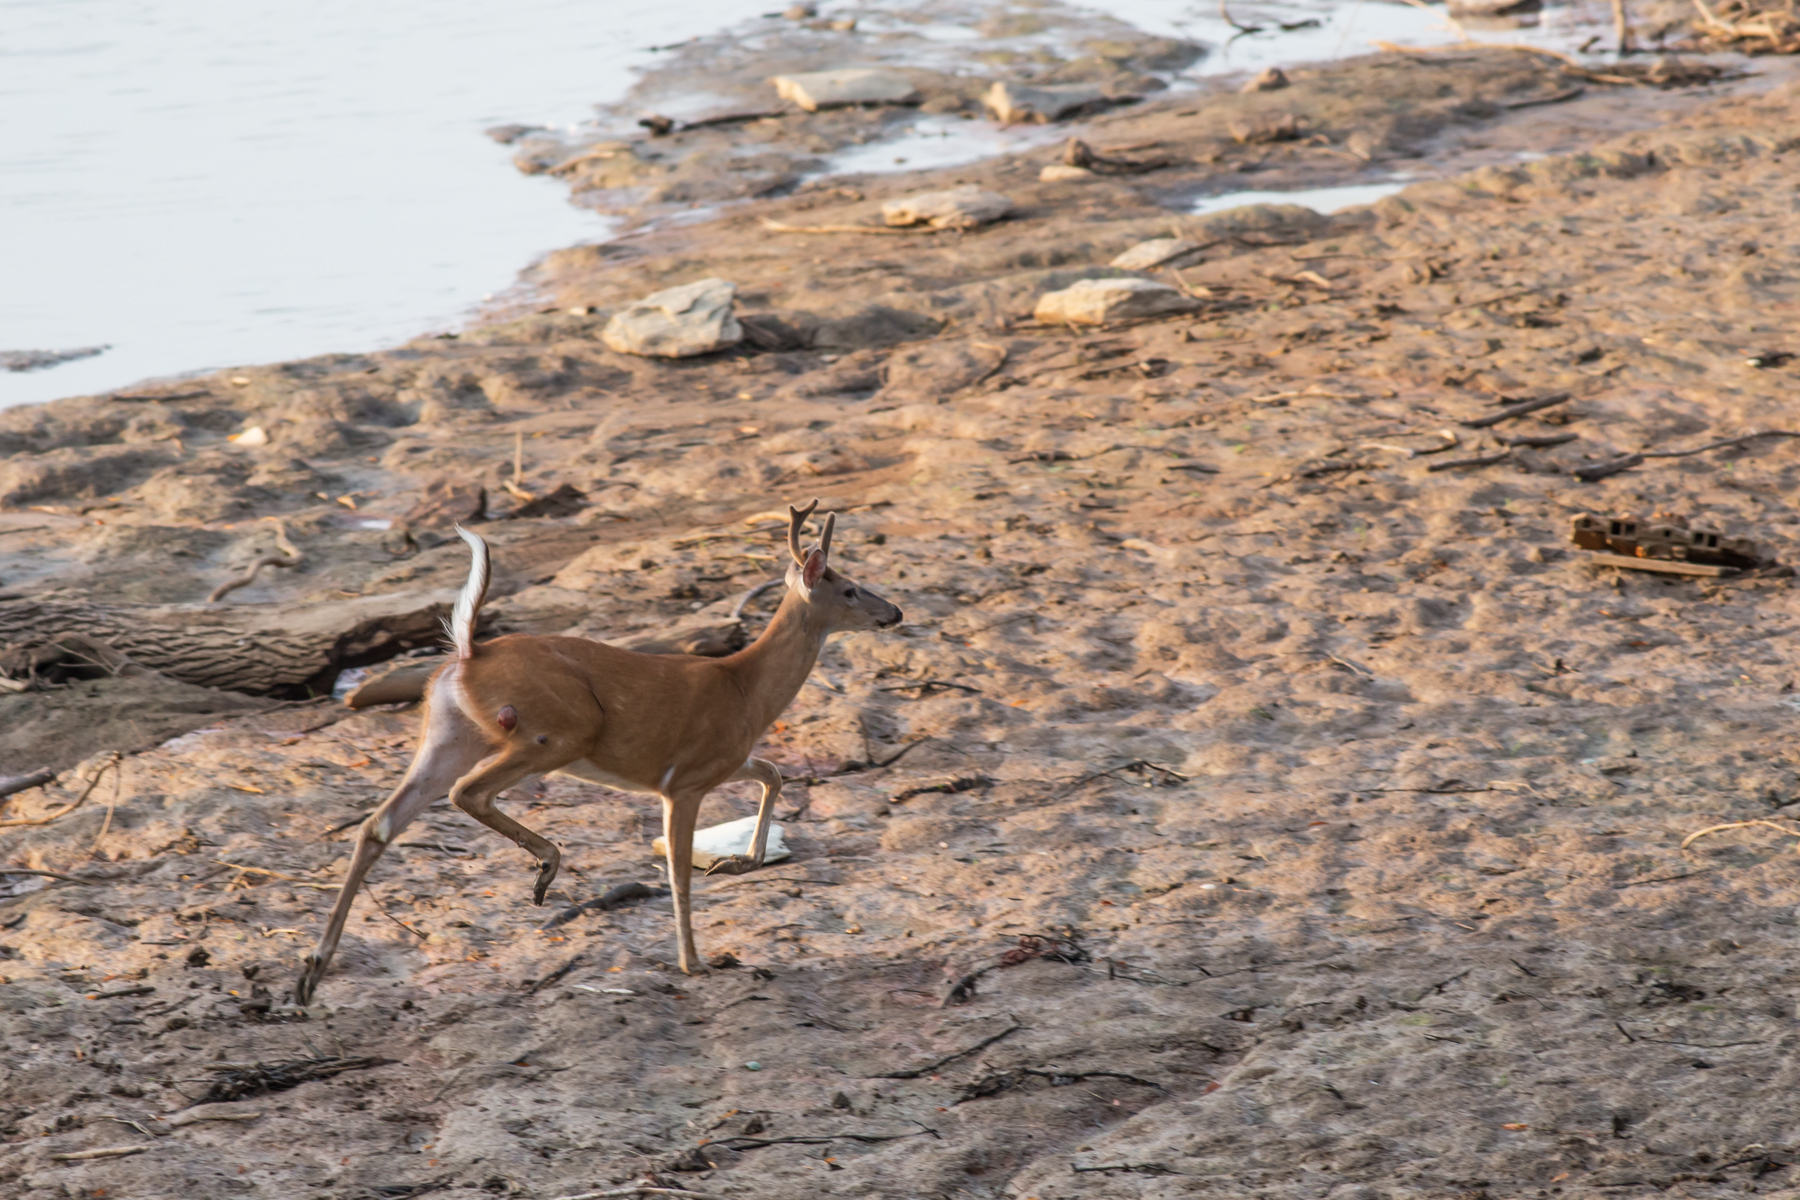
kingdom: Animalia
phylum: Chordata
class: Mammalia
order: Artiodactyla
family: Cervidae
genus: Odocoileus
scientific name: Odocoileus virginianus
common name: White-tailed deer
